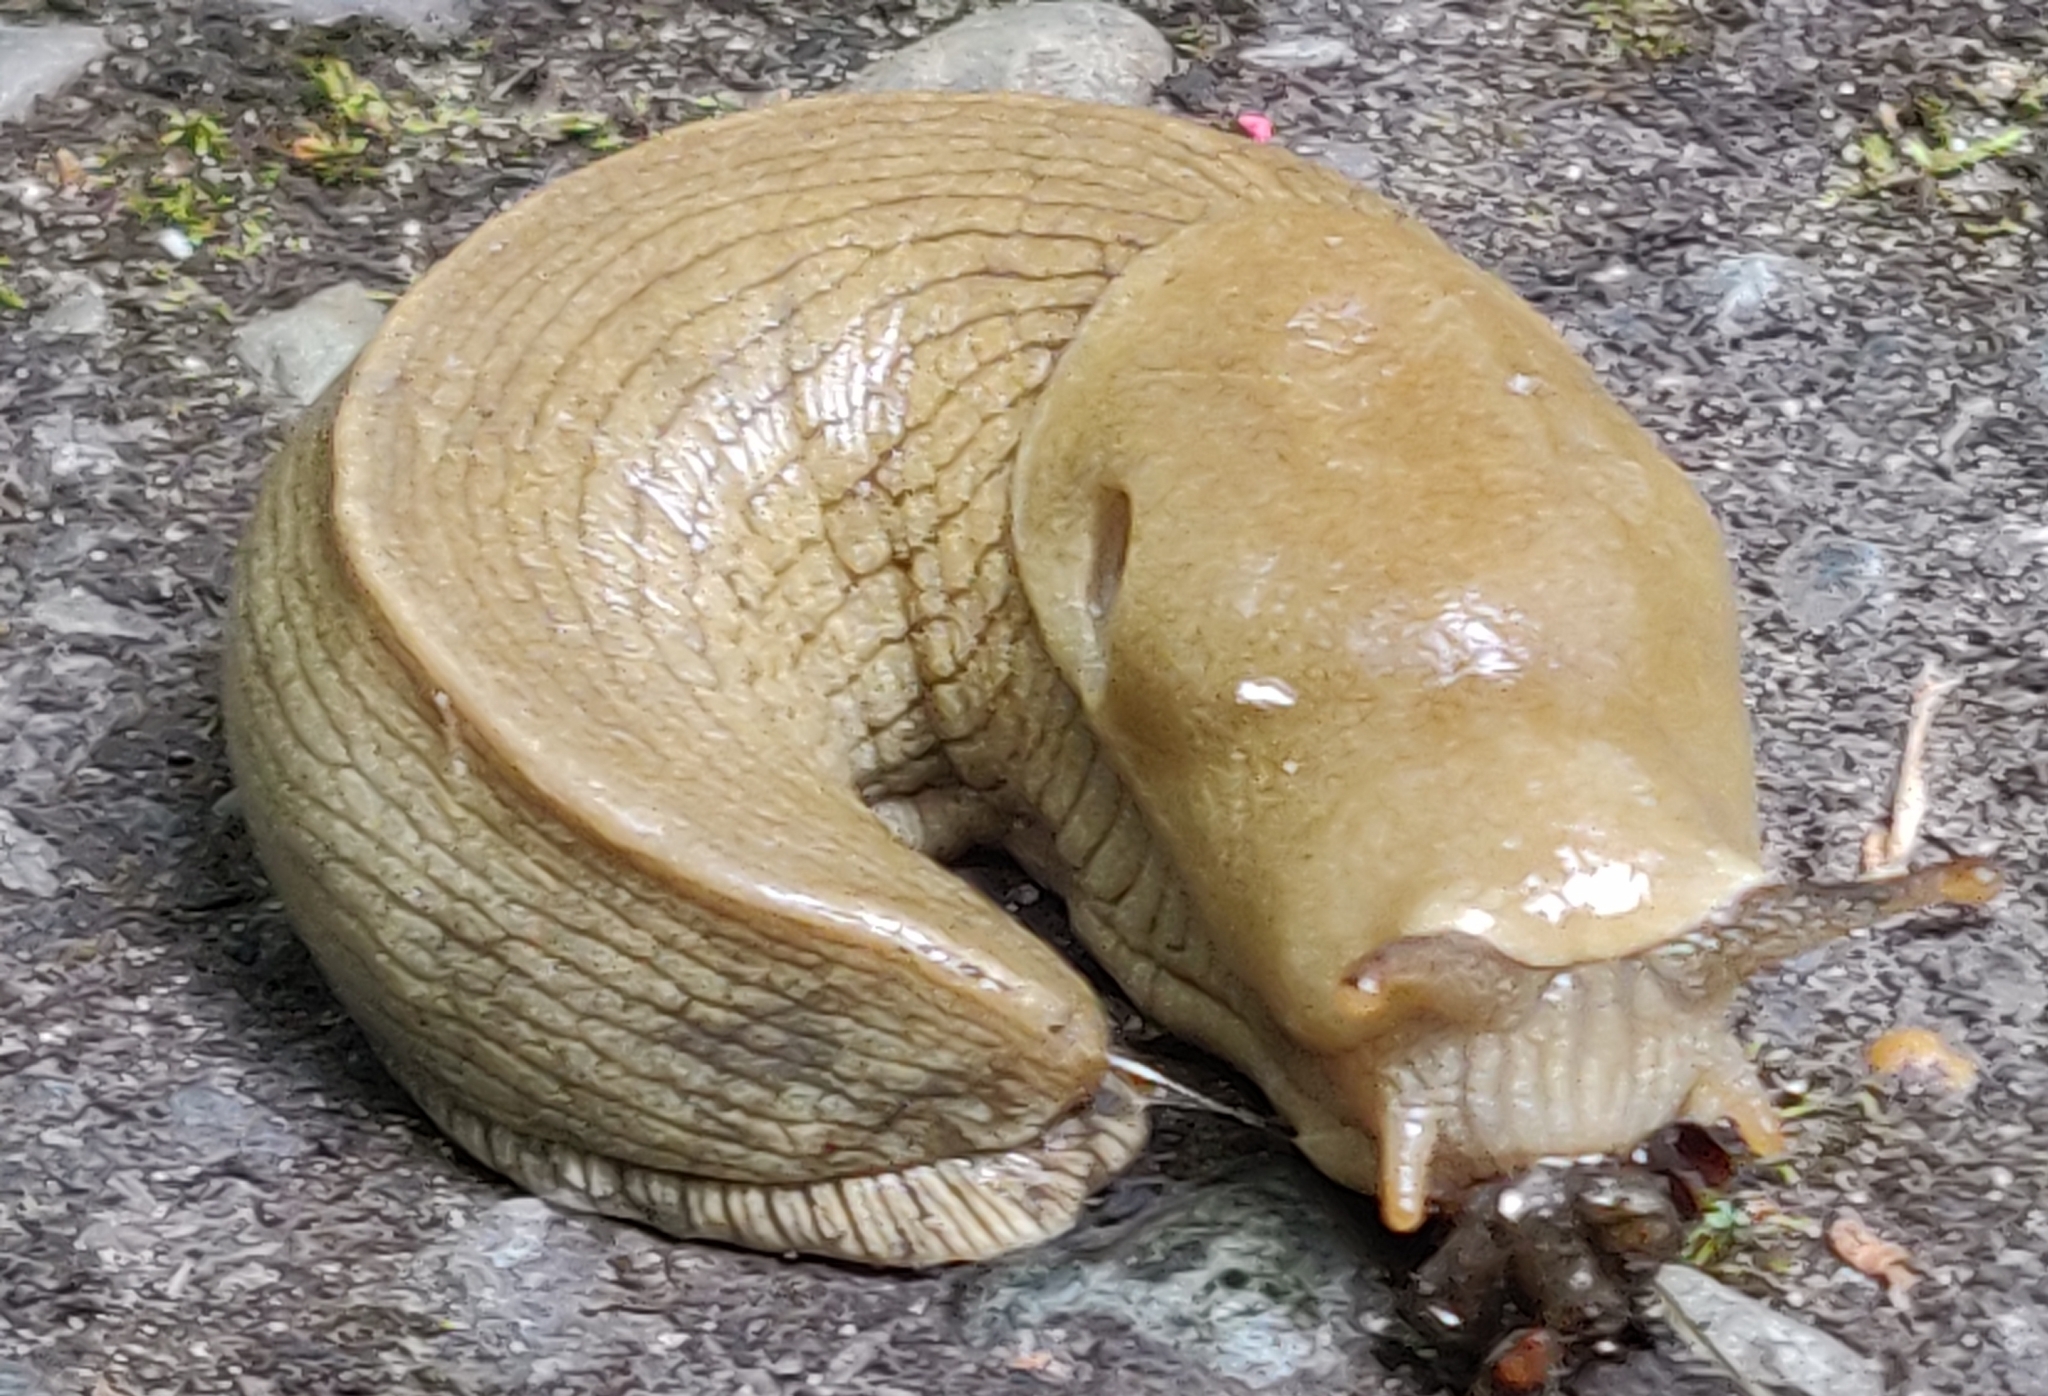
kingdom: Animalia
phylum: Mollusca
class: Gastropoda
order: Stylommatophora
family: Ariolimacidae
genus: Ariolimax
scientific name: Ariolimax columbianus
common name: Pacific banana slug
